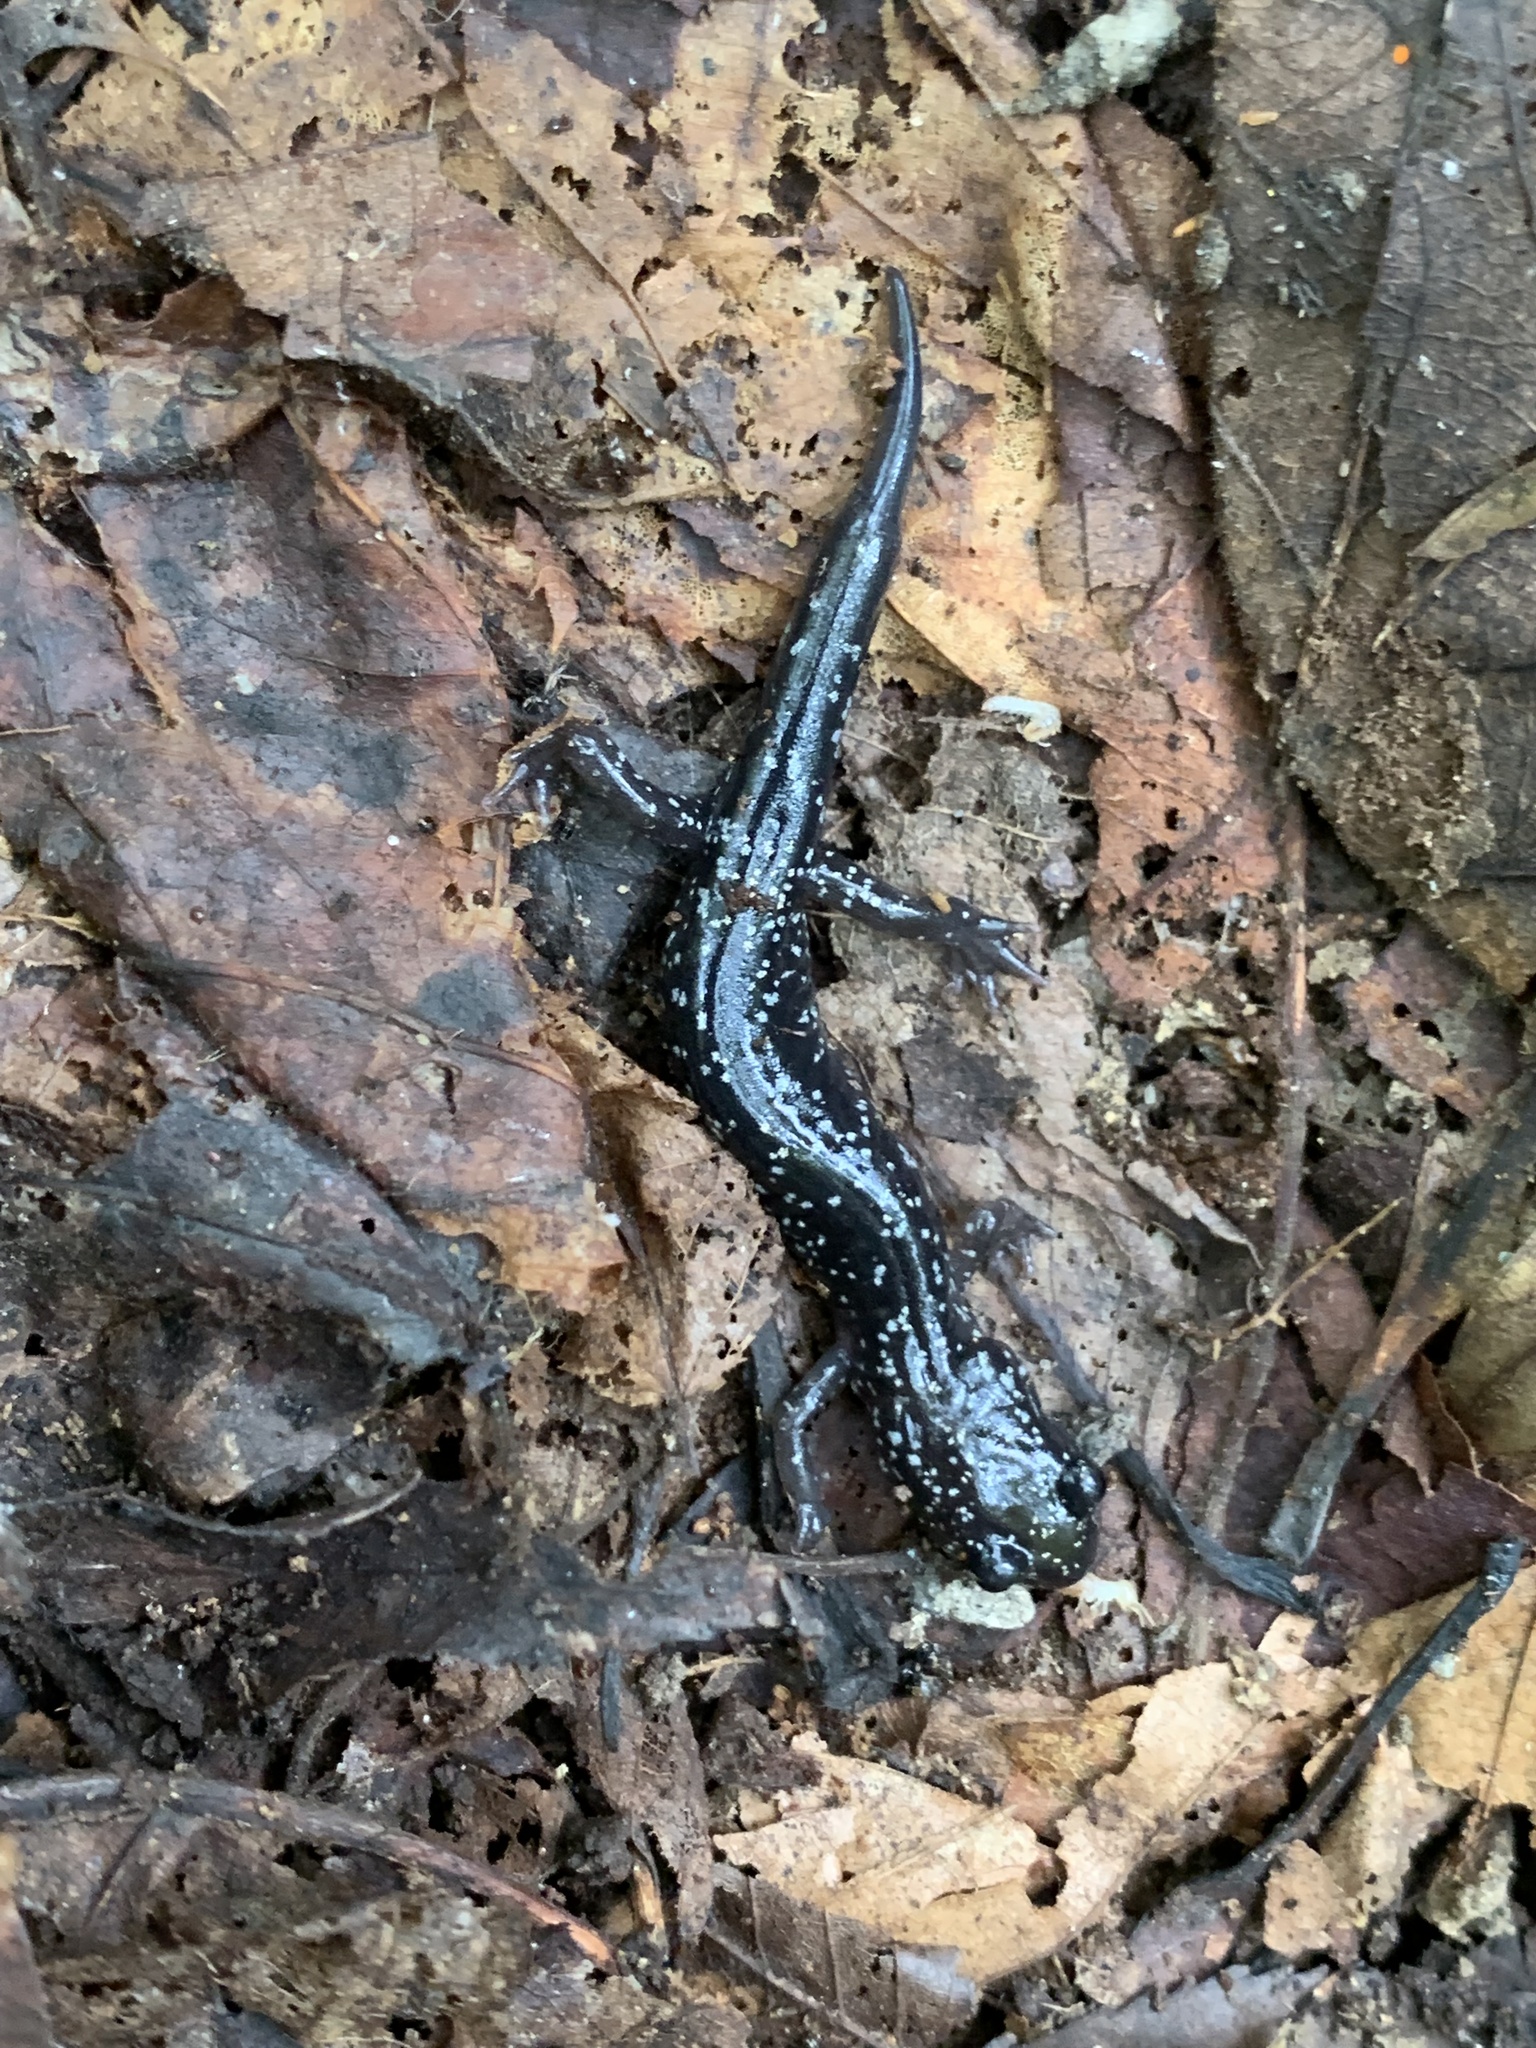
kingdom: Animalia
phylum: Chordata
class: Amphibia
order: Caudata
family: Plethodontidae
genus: Plethodon
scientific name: Plethodon cylindraceus
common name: White-spotted slimy salamander
